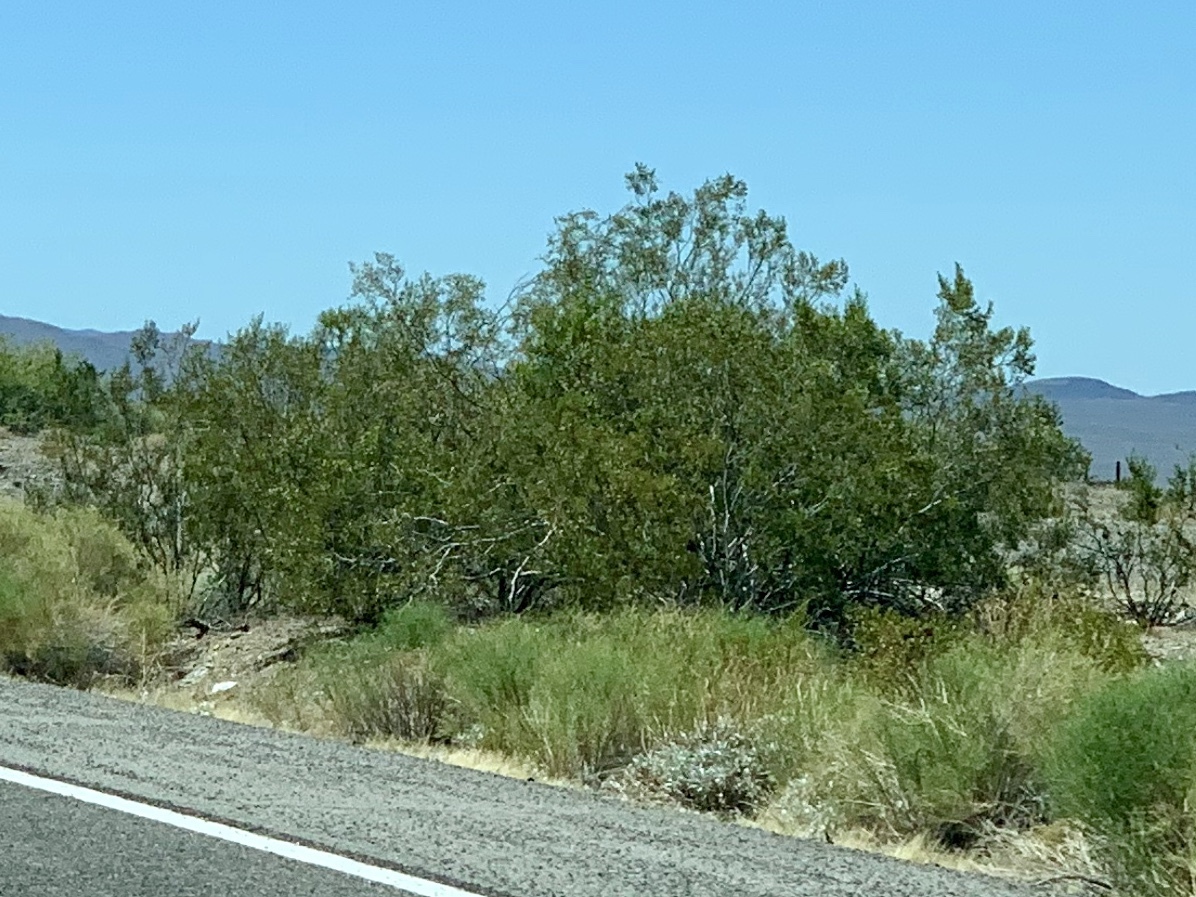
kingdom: Plantae
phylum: Tracheophyta
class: Magnoliopsida
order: Zygophyllales
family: Zygophyllaceae
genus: Larrea
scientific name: Larrea tridentata
